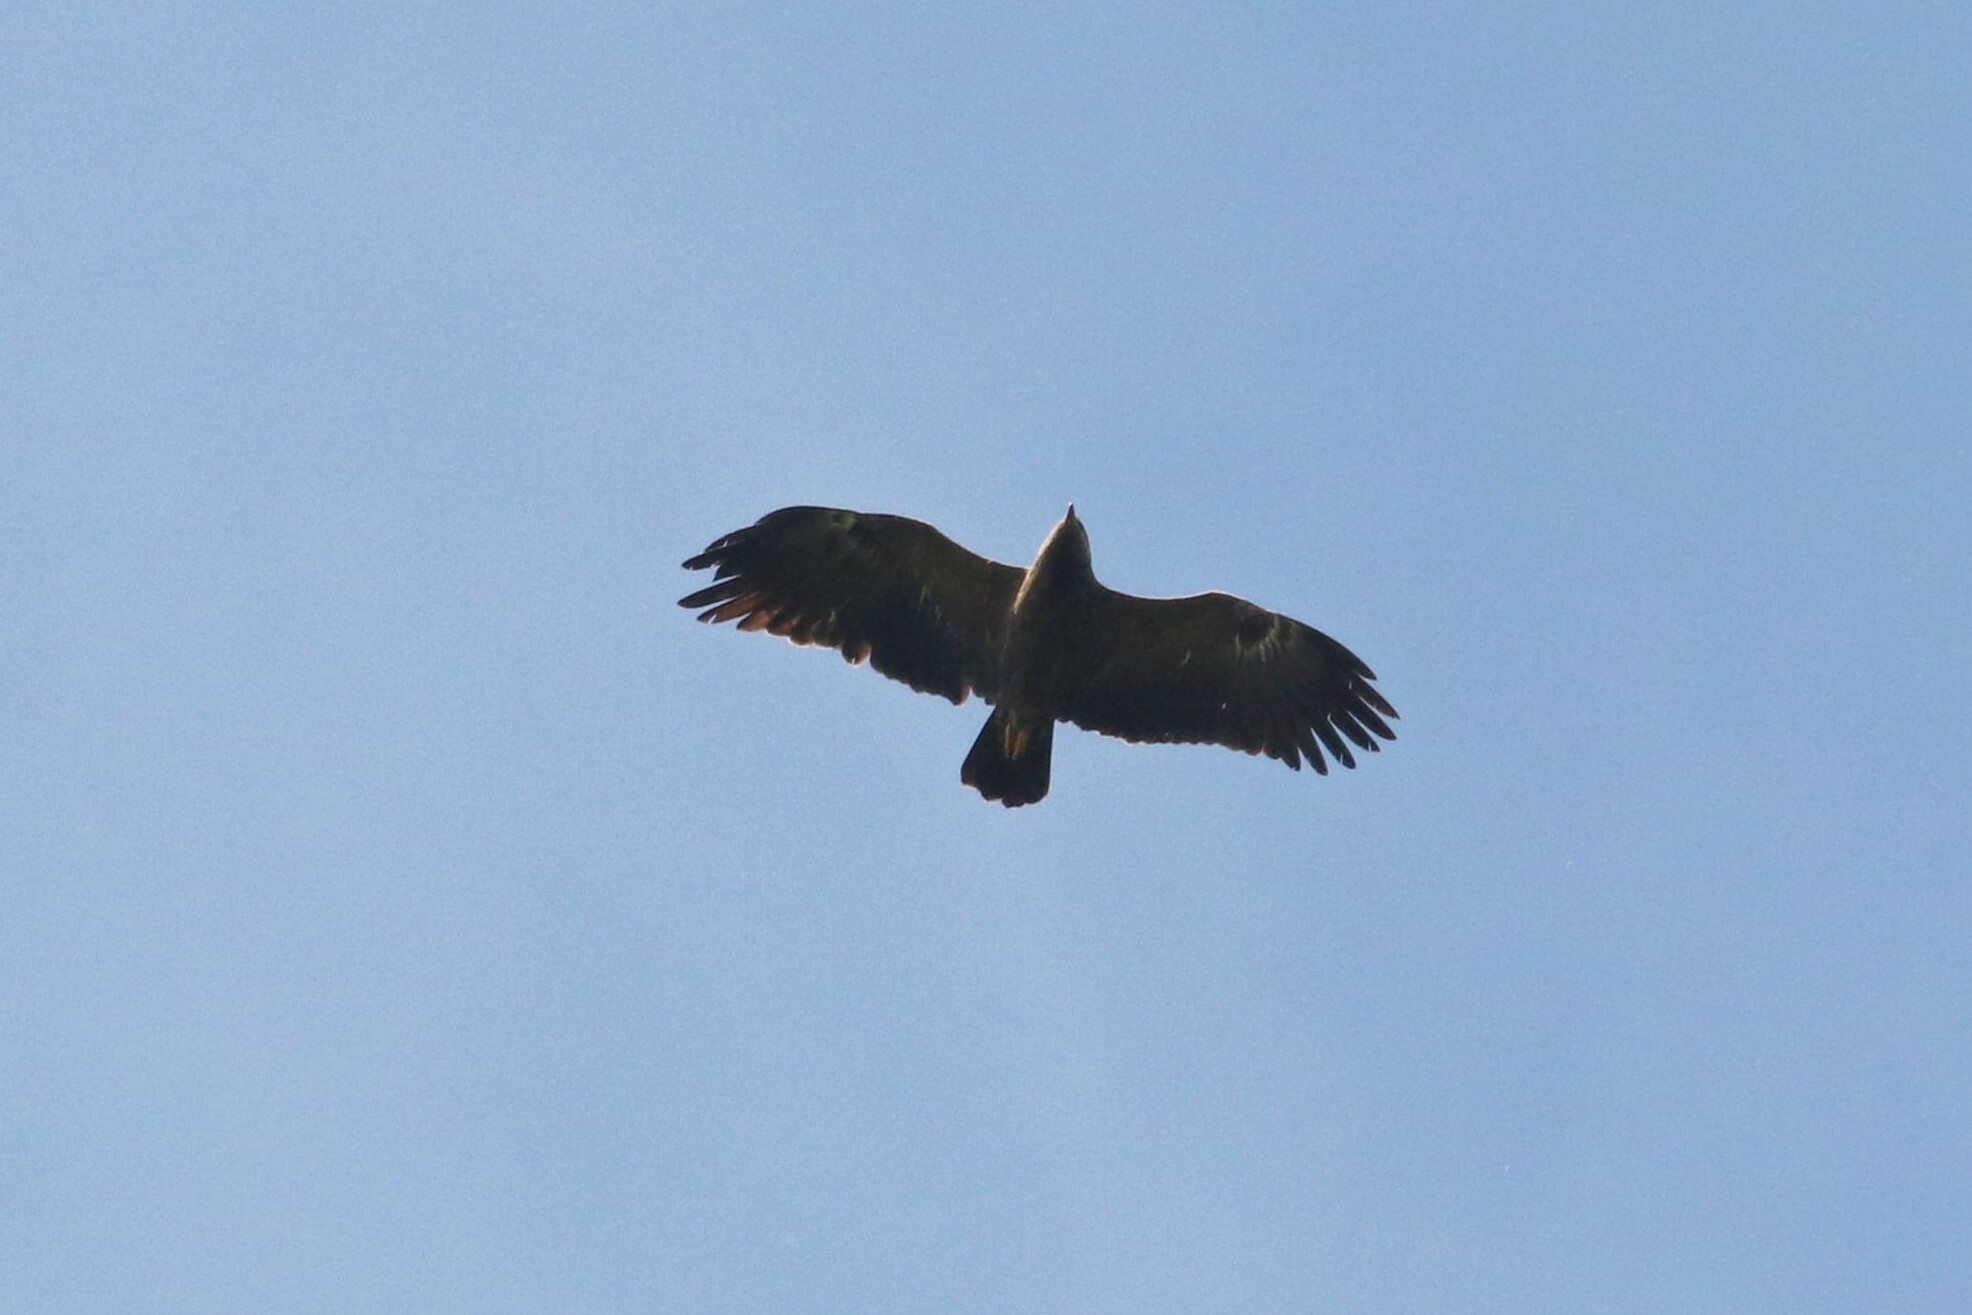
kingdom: Animalia
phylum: Chordata
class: Aves
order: Accipitriformes
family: Accipitridae
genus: Aquila
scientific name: Aquila pomarina
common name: Lesser spotted eagle
